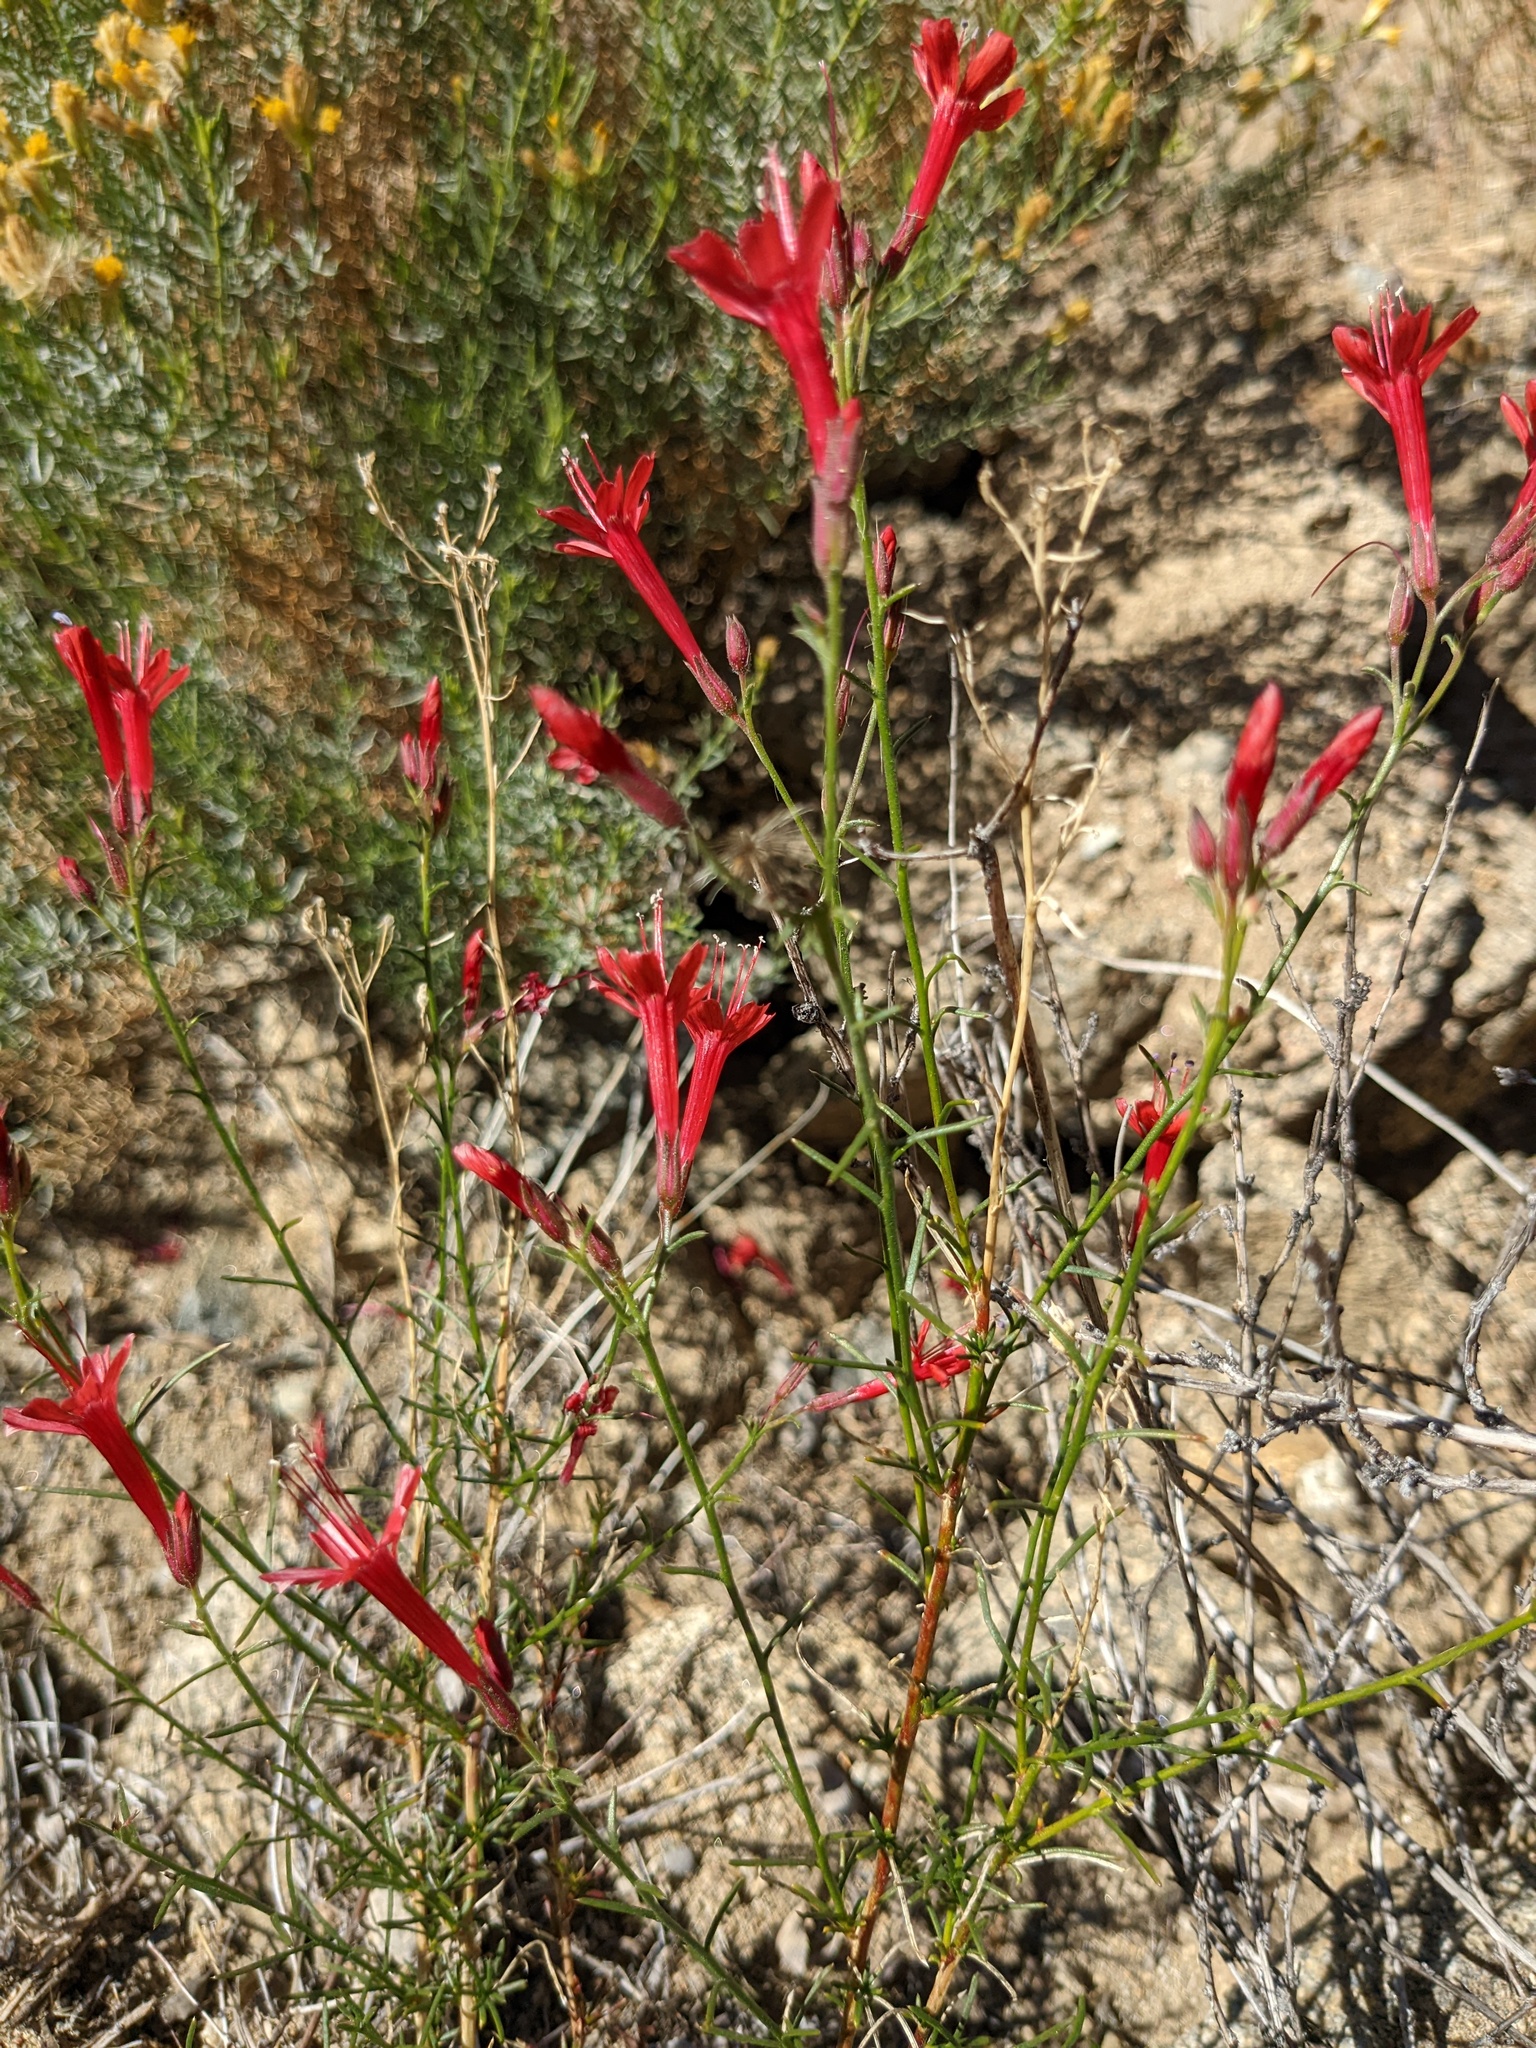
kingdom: Plantae
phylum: Tracheophyta
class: Magnoliopsida
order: Ericales
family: Polemoniaceae
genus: Ipomopsis
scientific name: Ipomopsis tenuifolia
